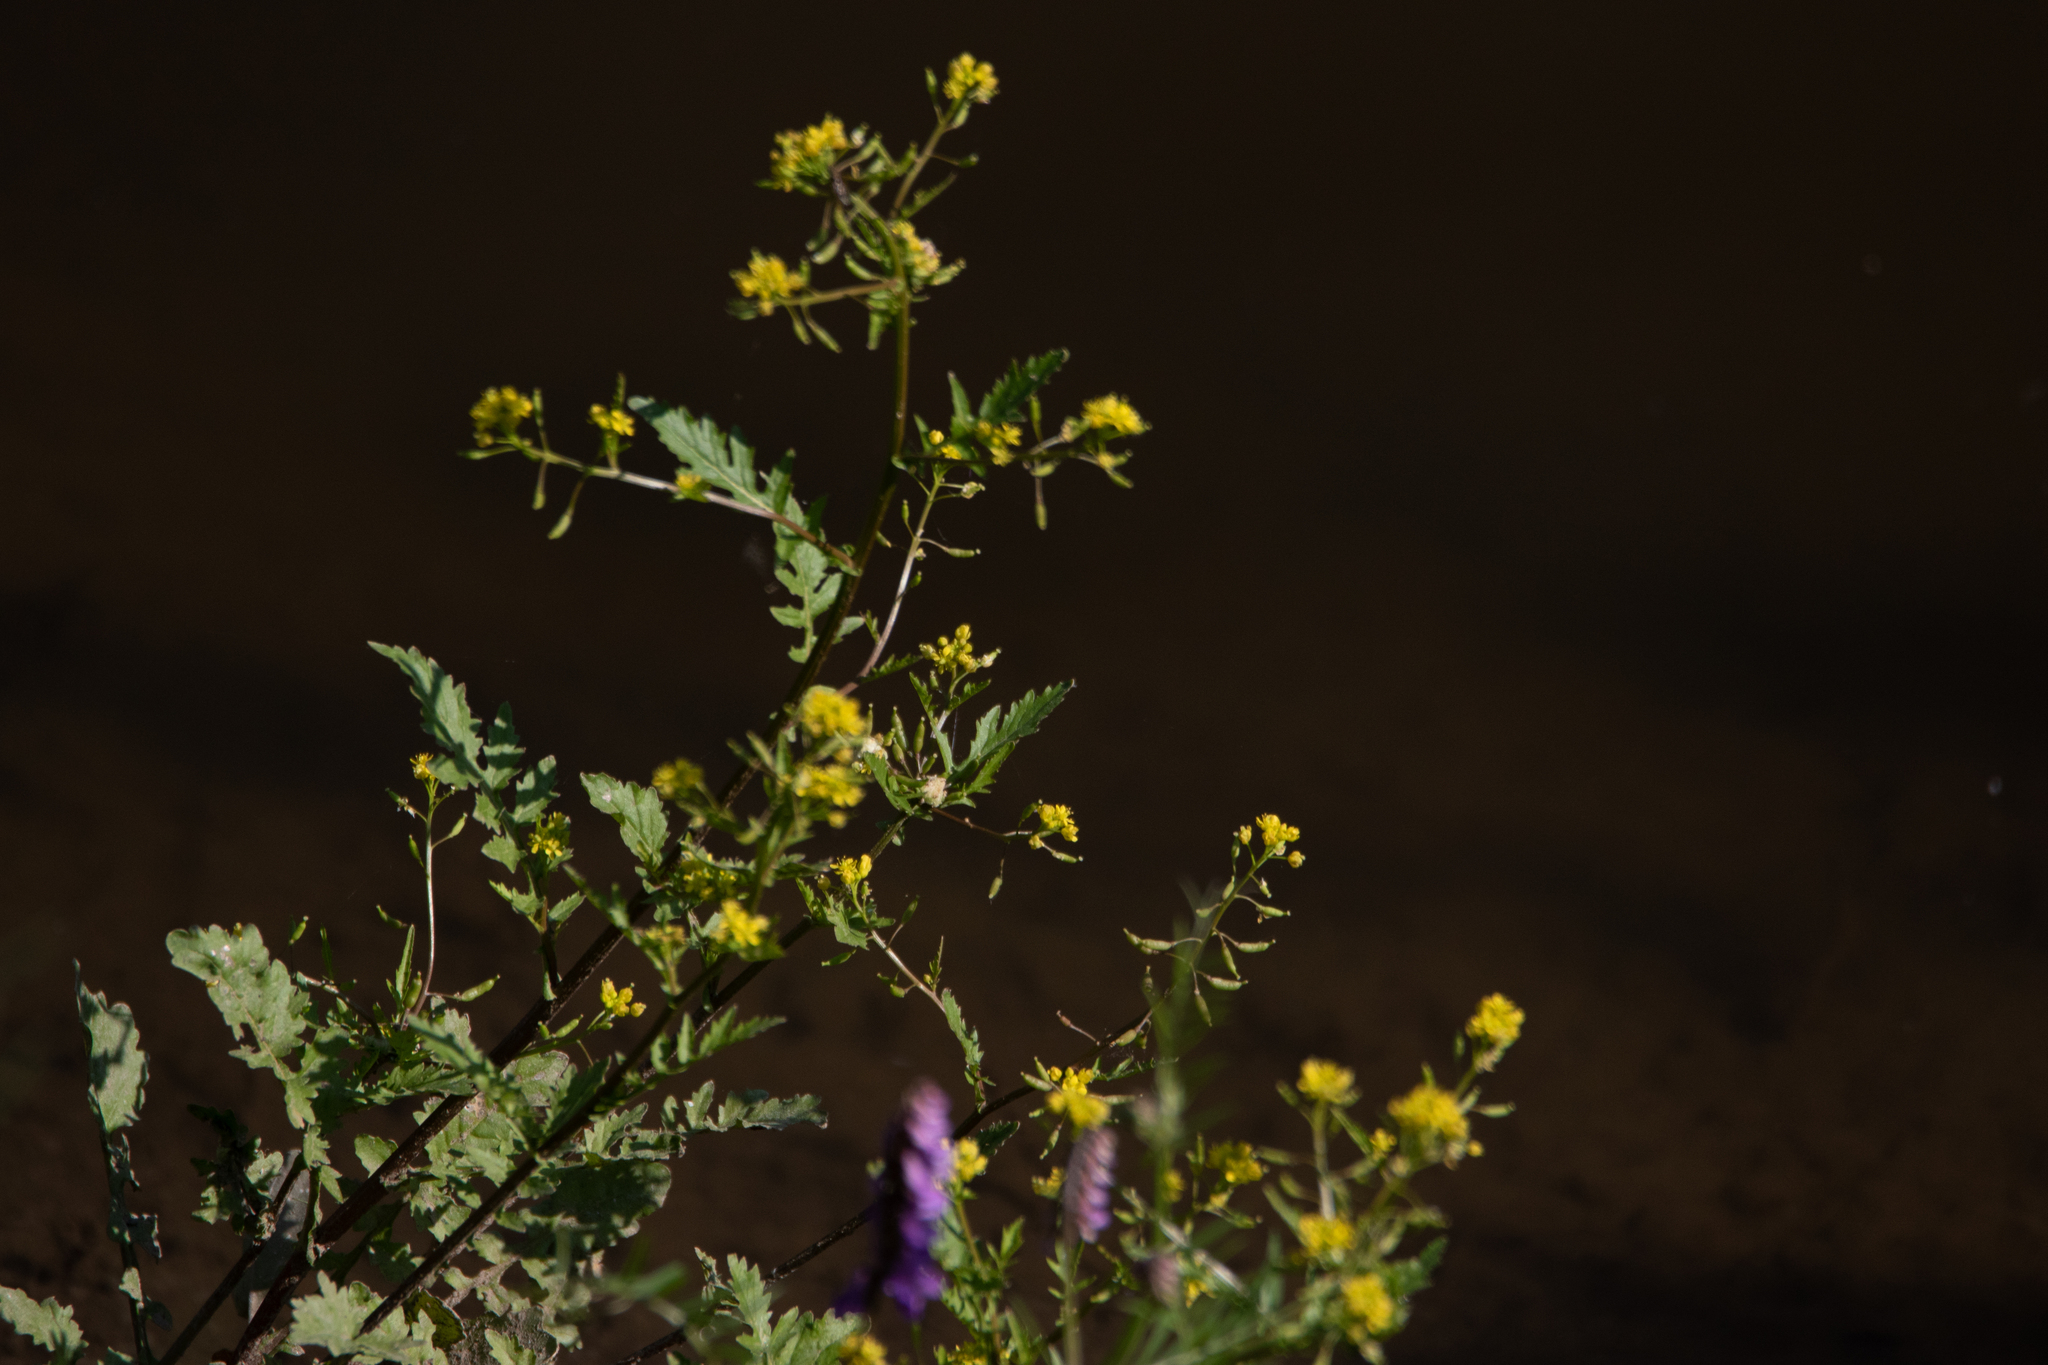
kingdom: Plantae
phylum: Tracheophyta
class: Magnoliopsida
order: Brassicales
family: Brassicaceae
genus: Rorippa
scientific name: Rorippa palustris
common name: Marsh yellow-cress
